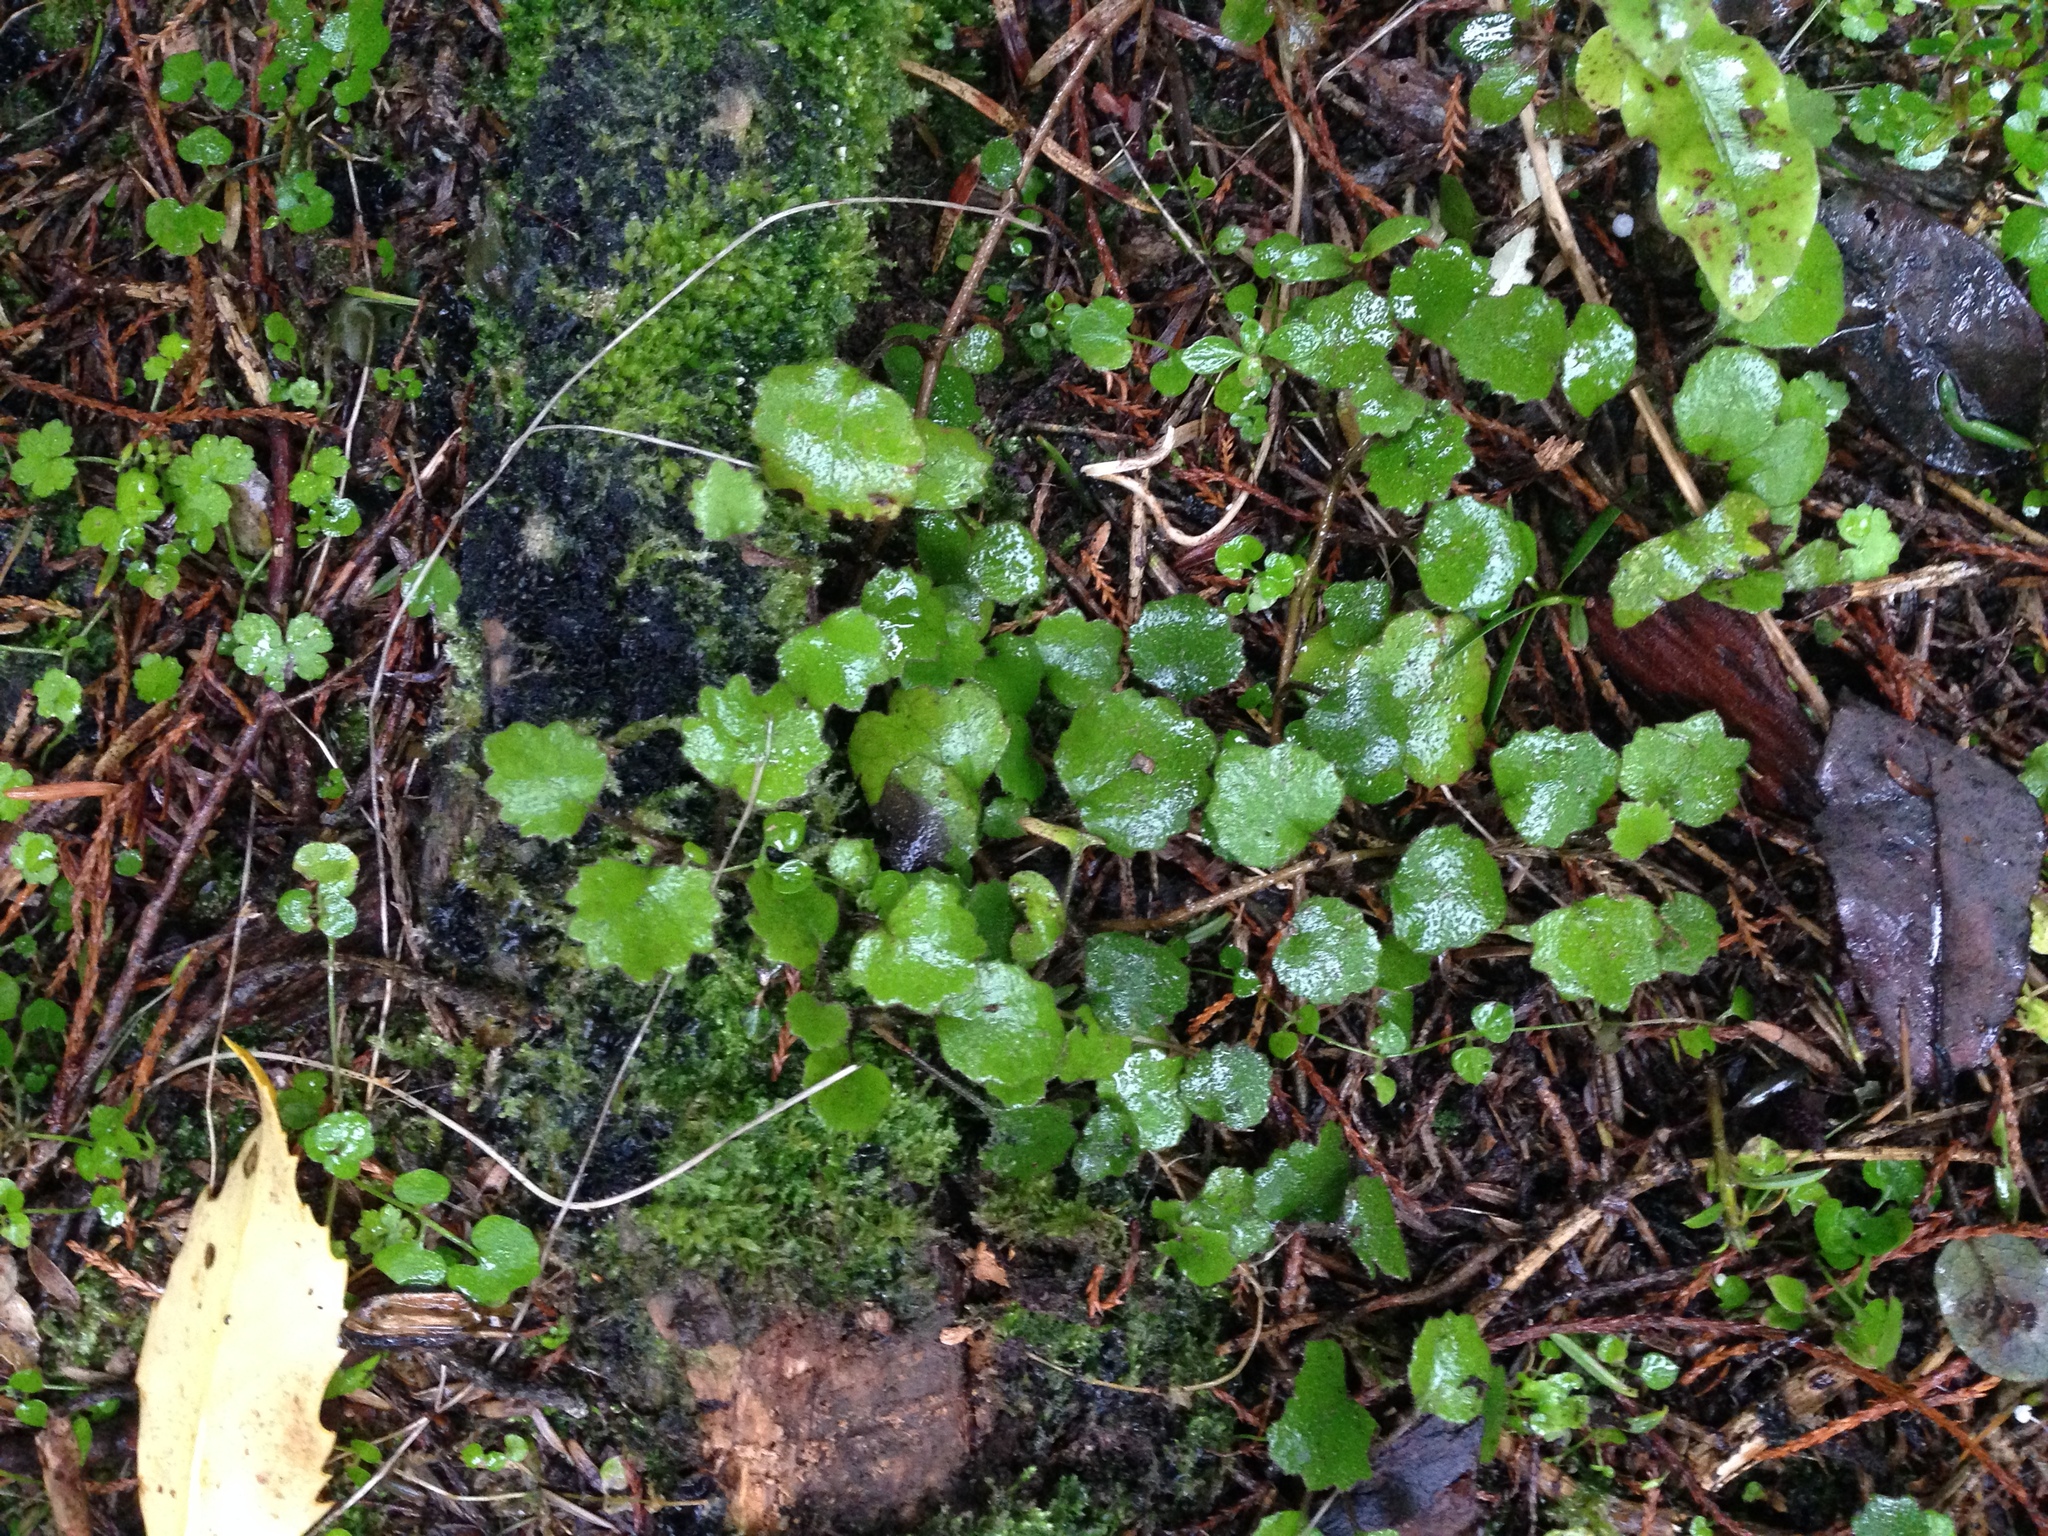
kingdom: Plantae
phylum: Tracheophyta
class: Magnoliopsida
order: Asterales
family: Asteraceae
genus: Brachyglottis
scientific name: Brachyglottis sciadophila
